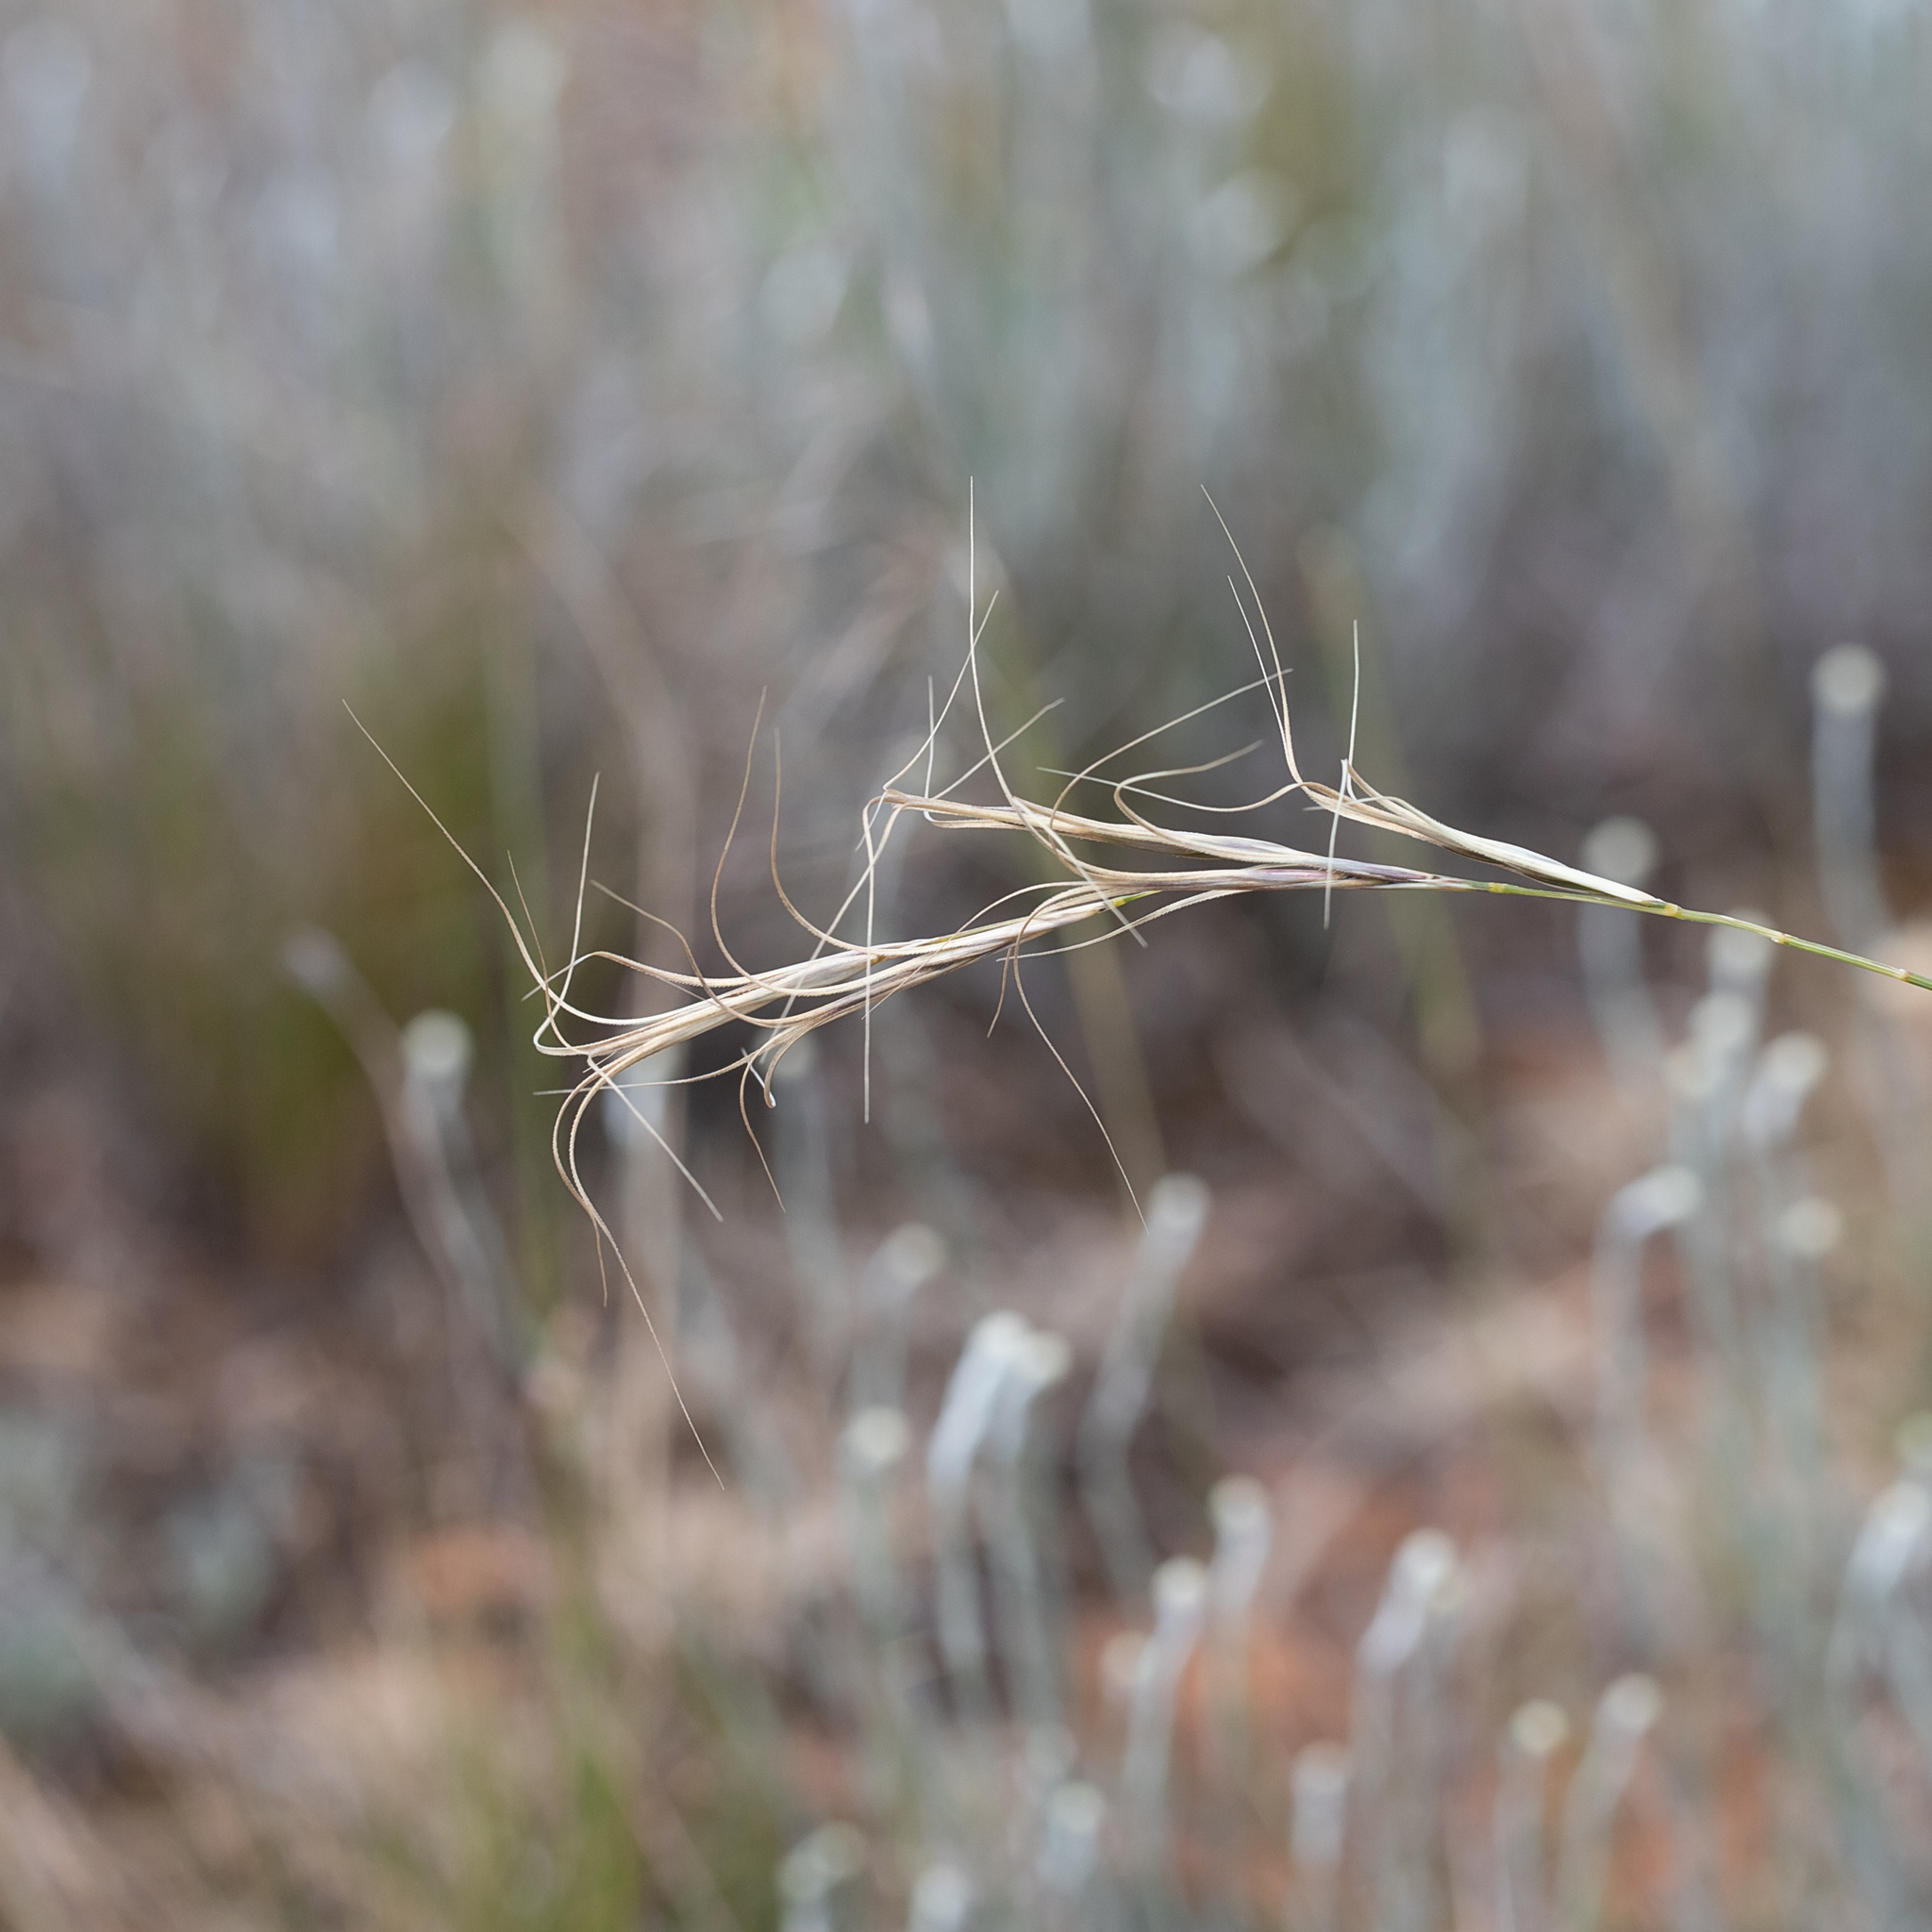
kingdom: Plantae
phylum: Tracheophyta
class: Liliopsida
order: Poales
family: Poaceae
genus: Anthosachne
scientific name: Anthosachne scabra
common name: Common wheatgrass
